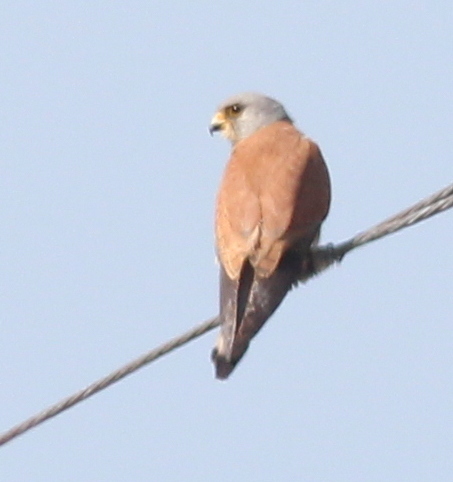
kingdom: Animalia
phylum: Chordata
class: Aves
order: Falconiformes
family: Falconidae
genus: Falco
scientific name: Falco naumanni
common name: Lesser kestrel
